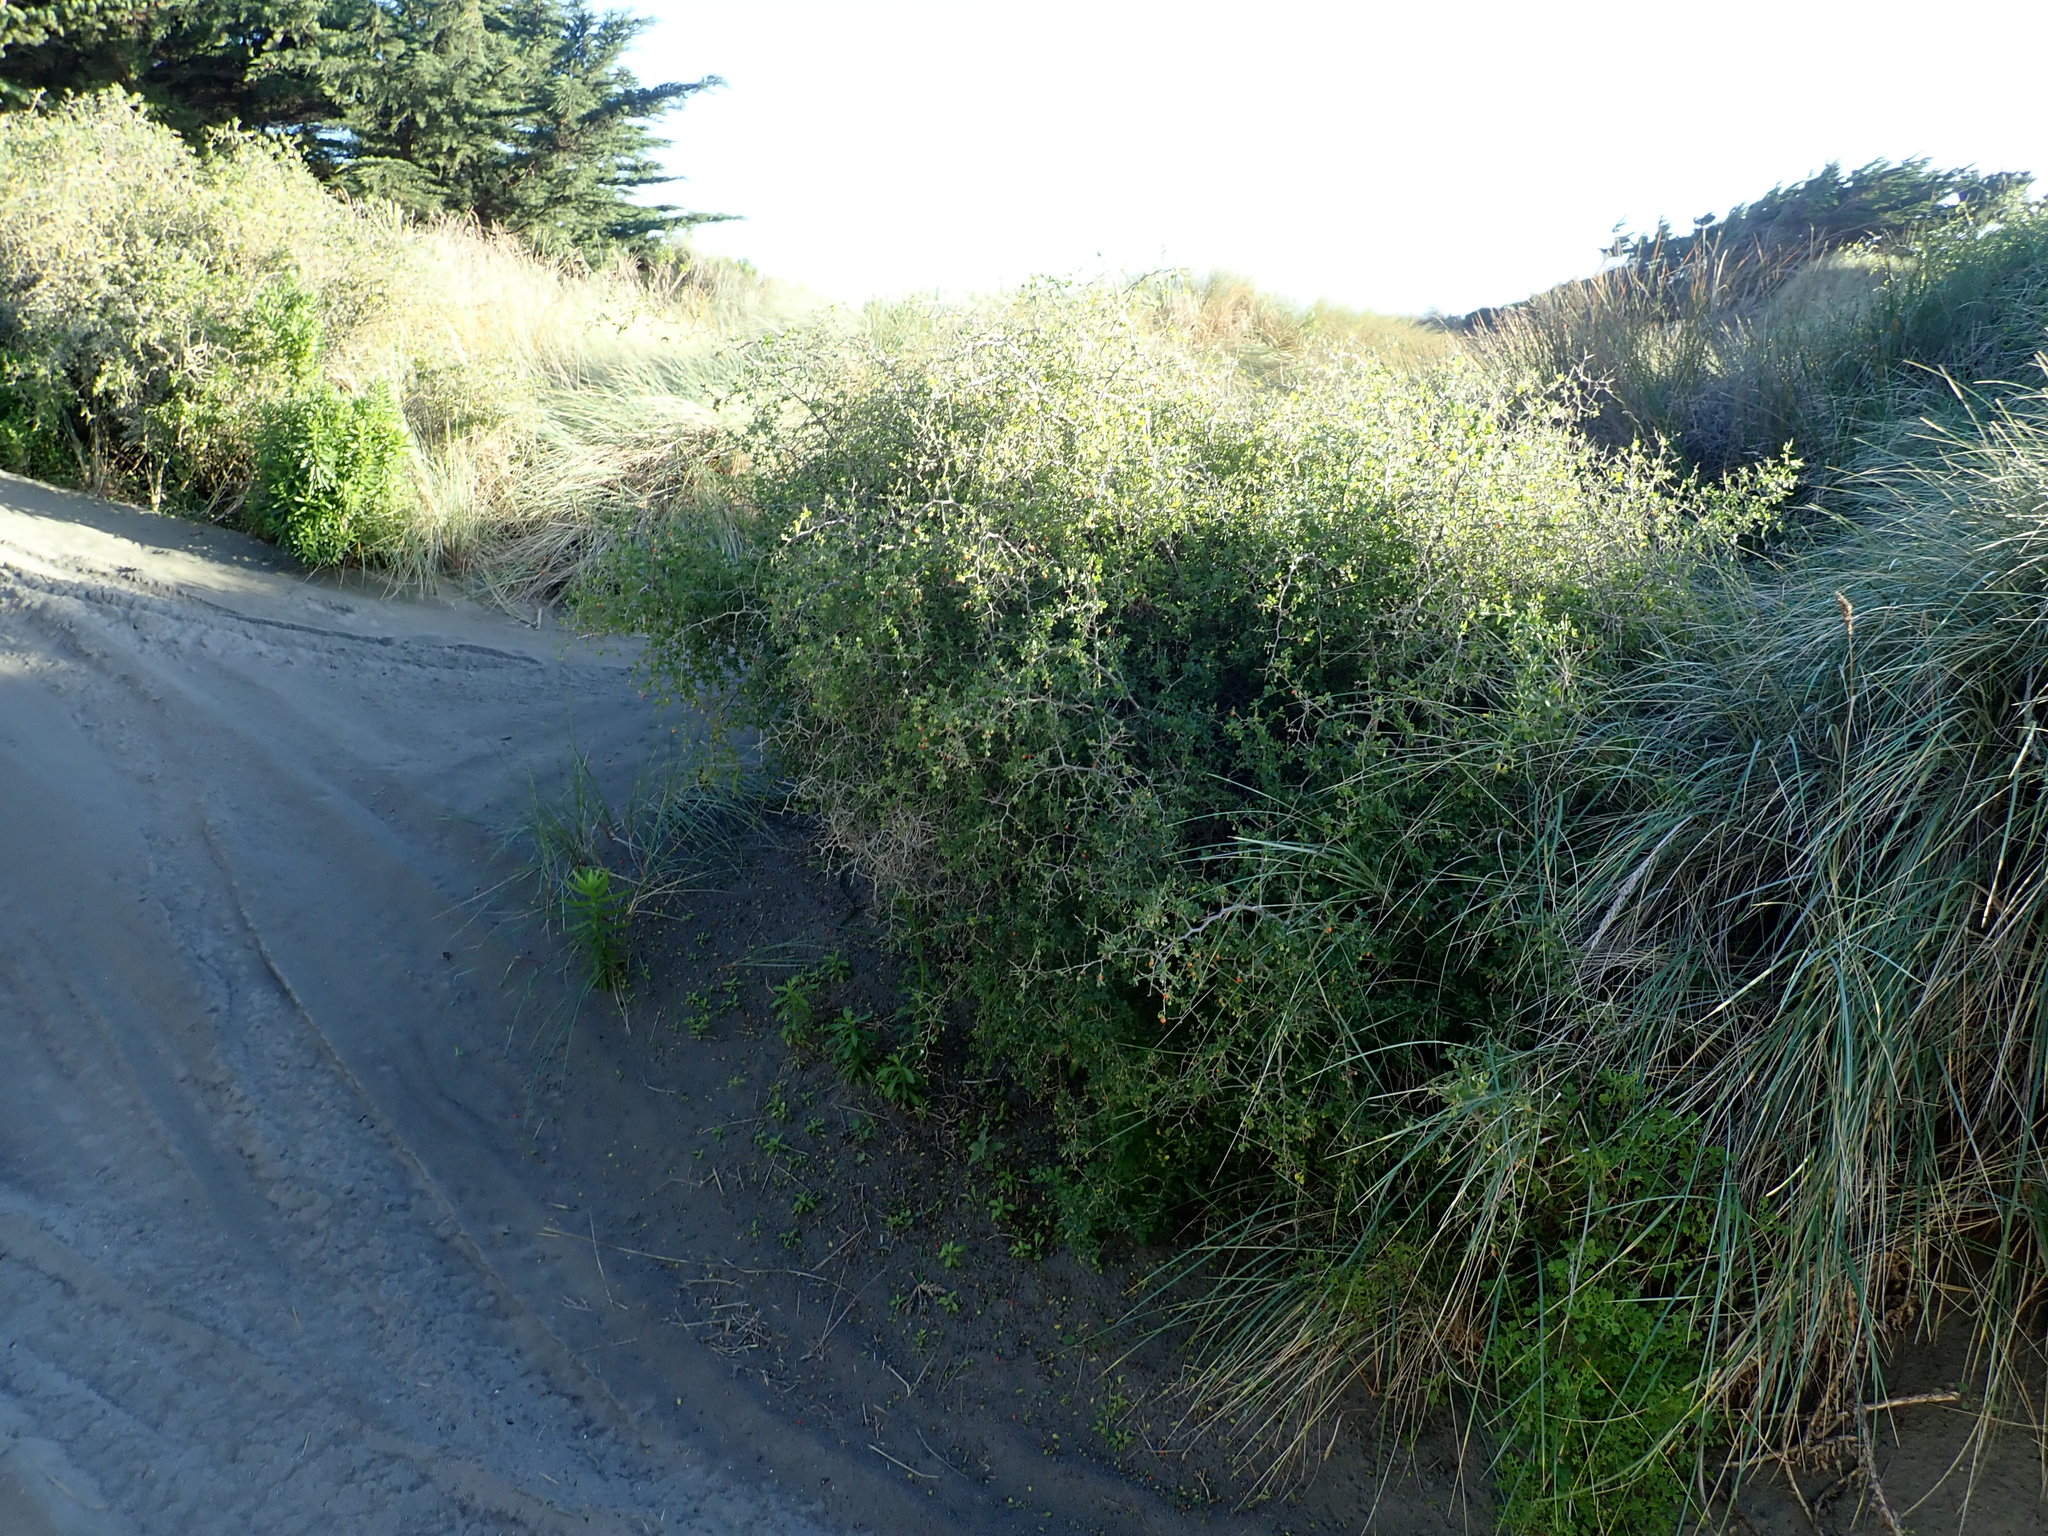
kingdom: Plantae
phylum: Tracheophyta
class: Magnoliopsida
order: Solanales
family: Solanaceae
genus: Lycium
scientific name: Lycium ferocissimum
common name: African boxthorn
